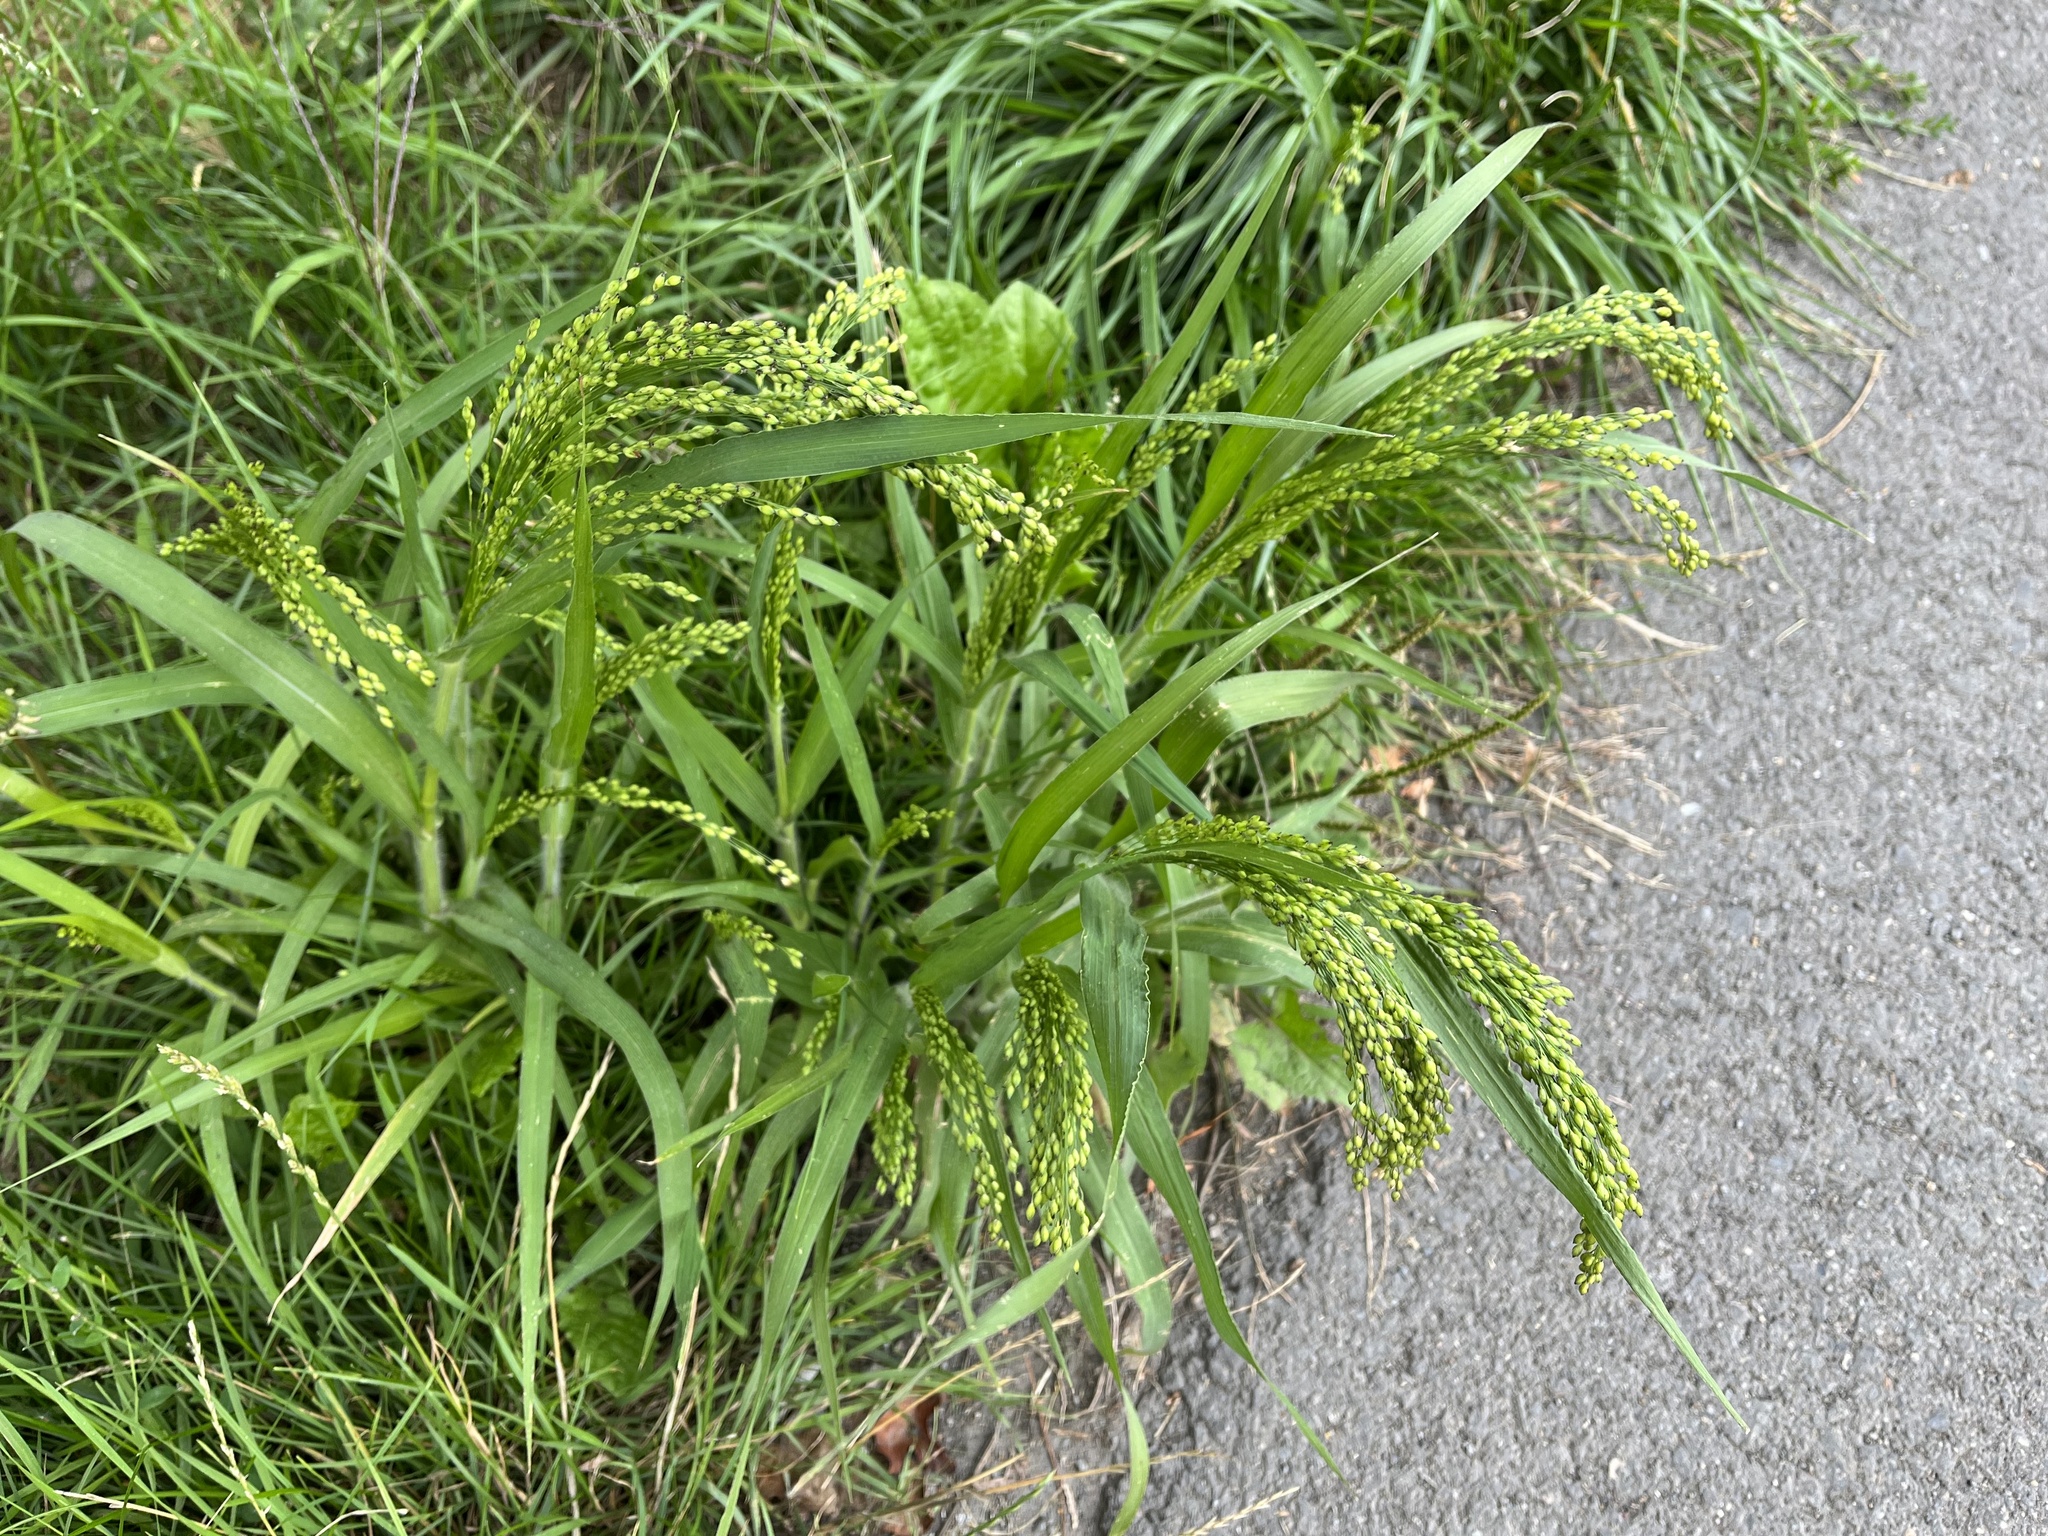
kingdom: Plantae
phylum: Tracheophyta
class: Liliopsida
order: Poales
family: Poaceae
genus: Panicum
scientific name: Panicum miliaceum
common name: Common millet
